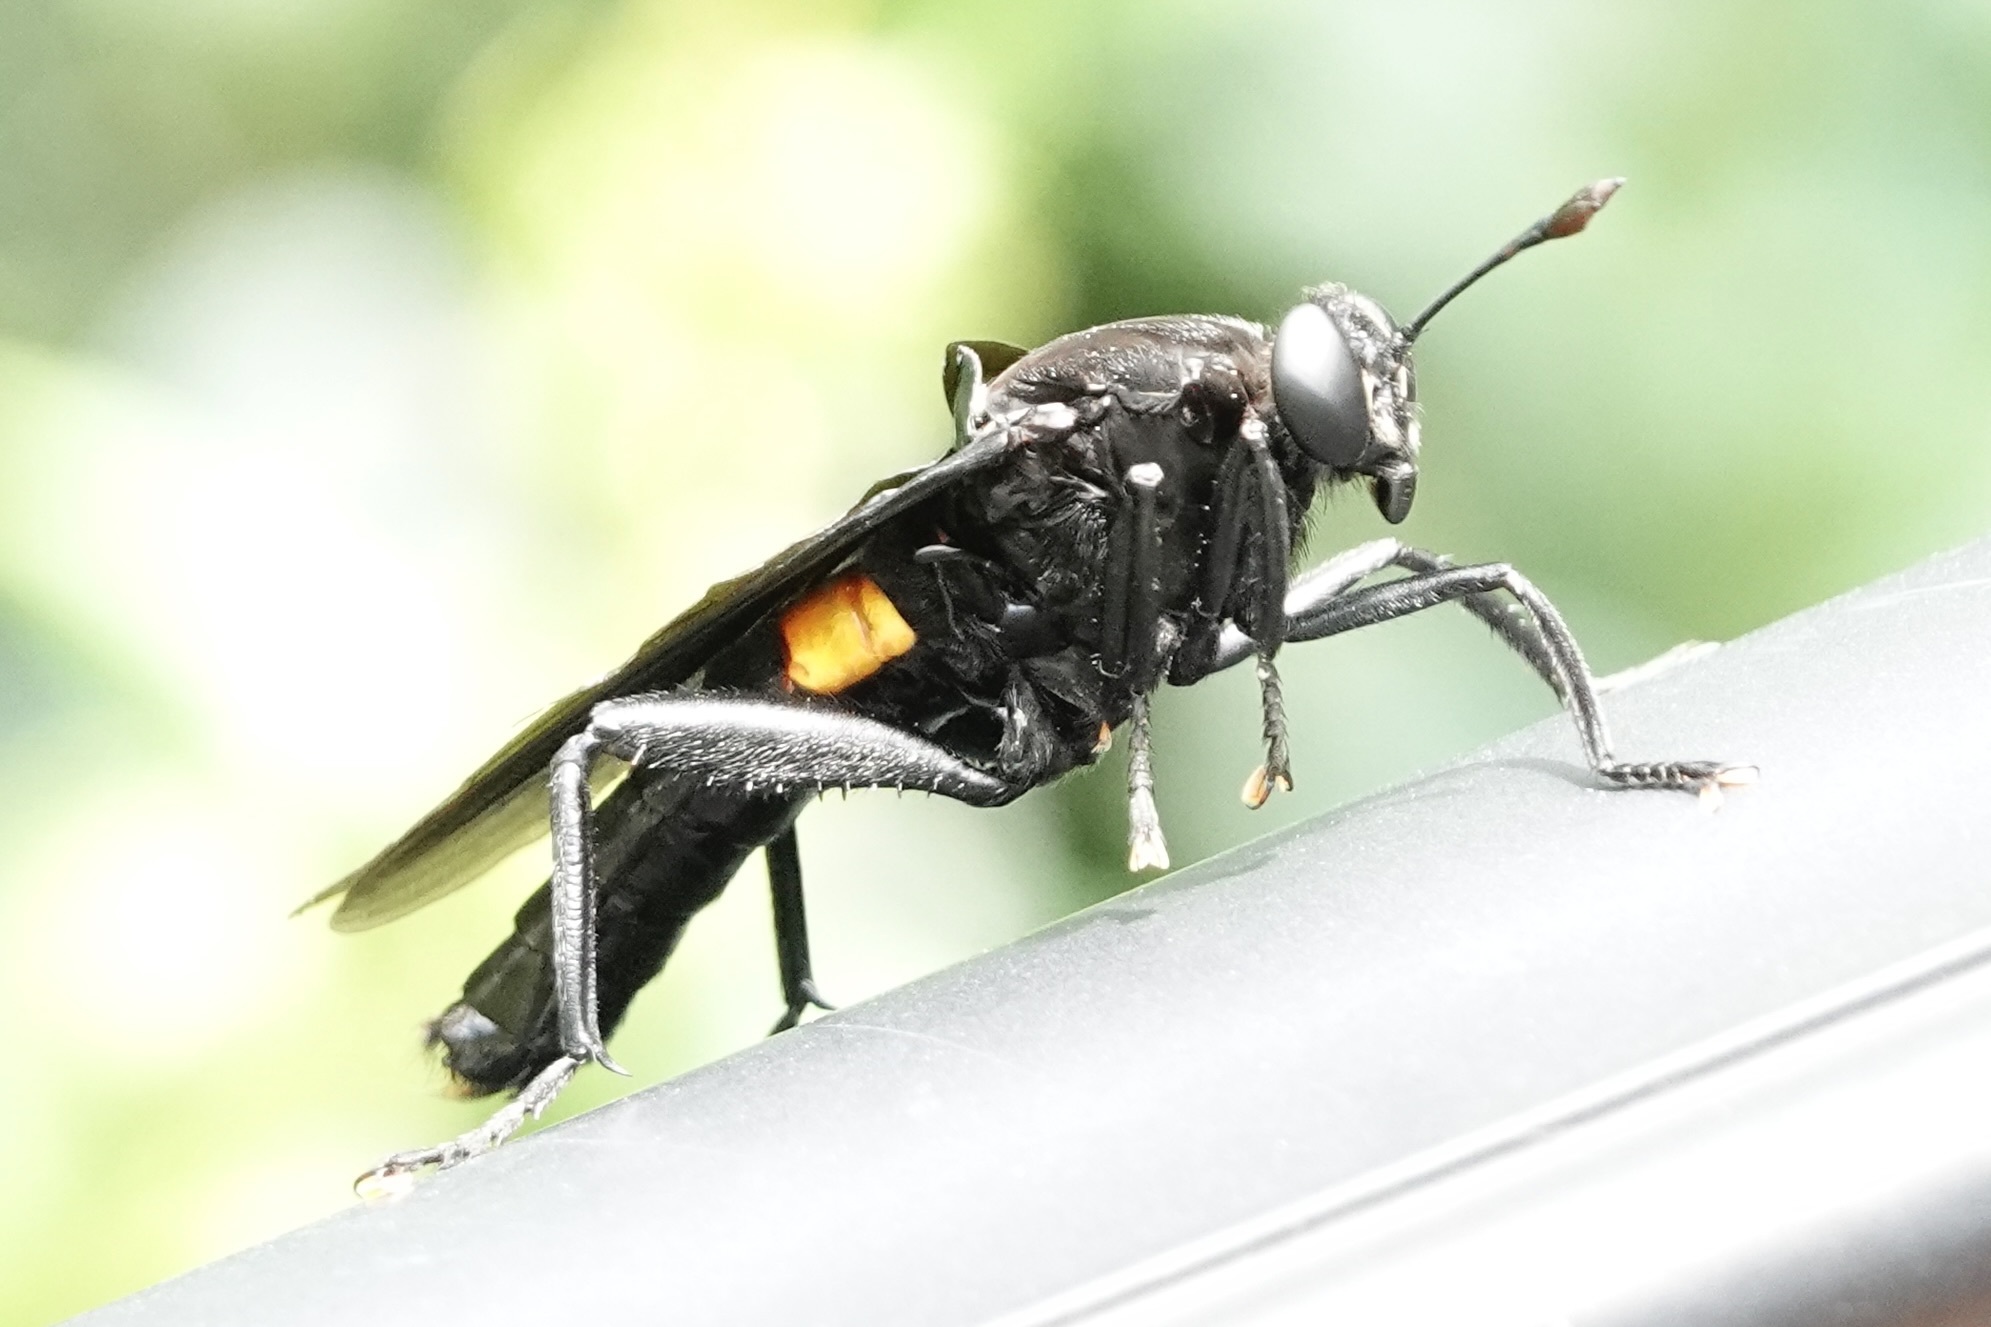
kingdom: Animalia
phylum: Arthropoda
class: Insecta
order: Diptera
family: Mydidae
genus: Mydas
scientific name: Mydas clavatus
